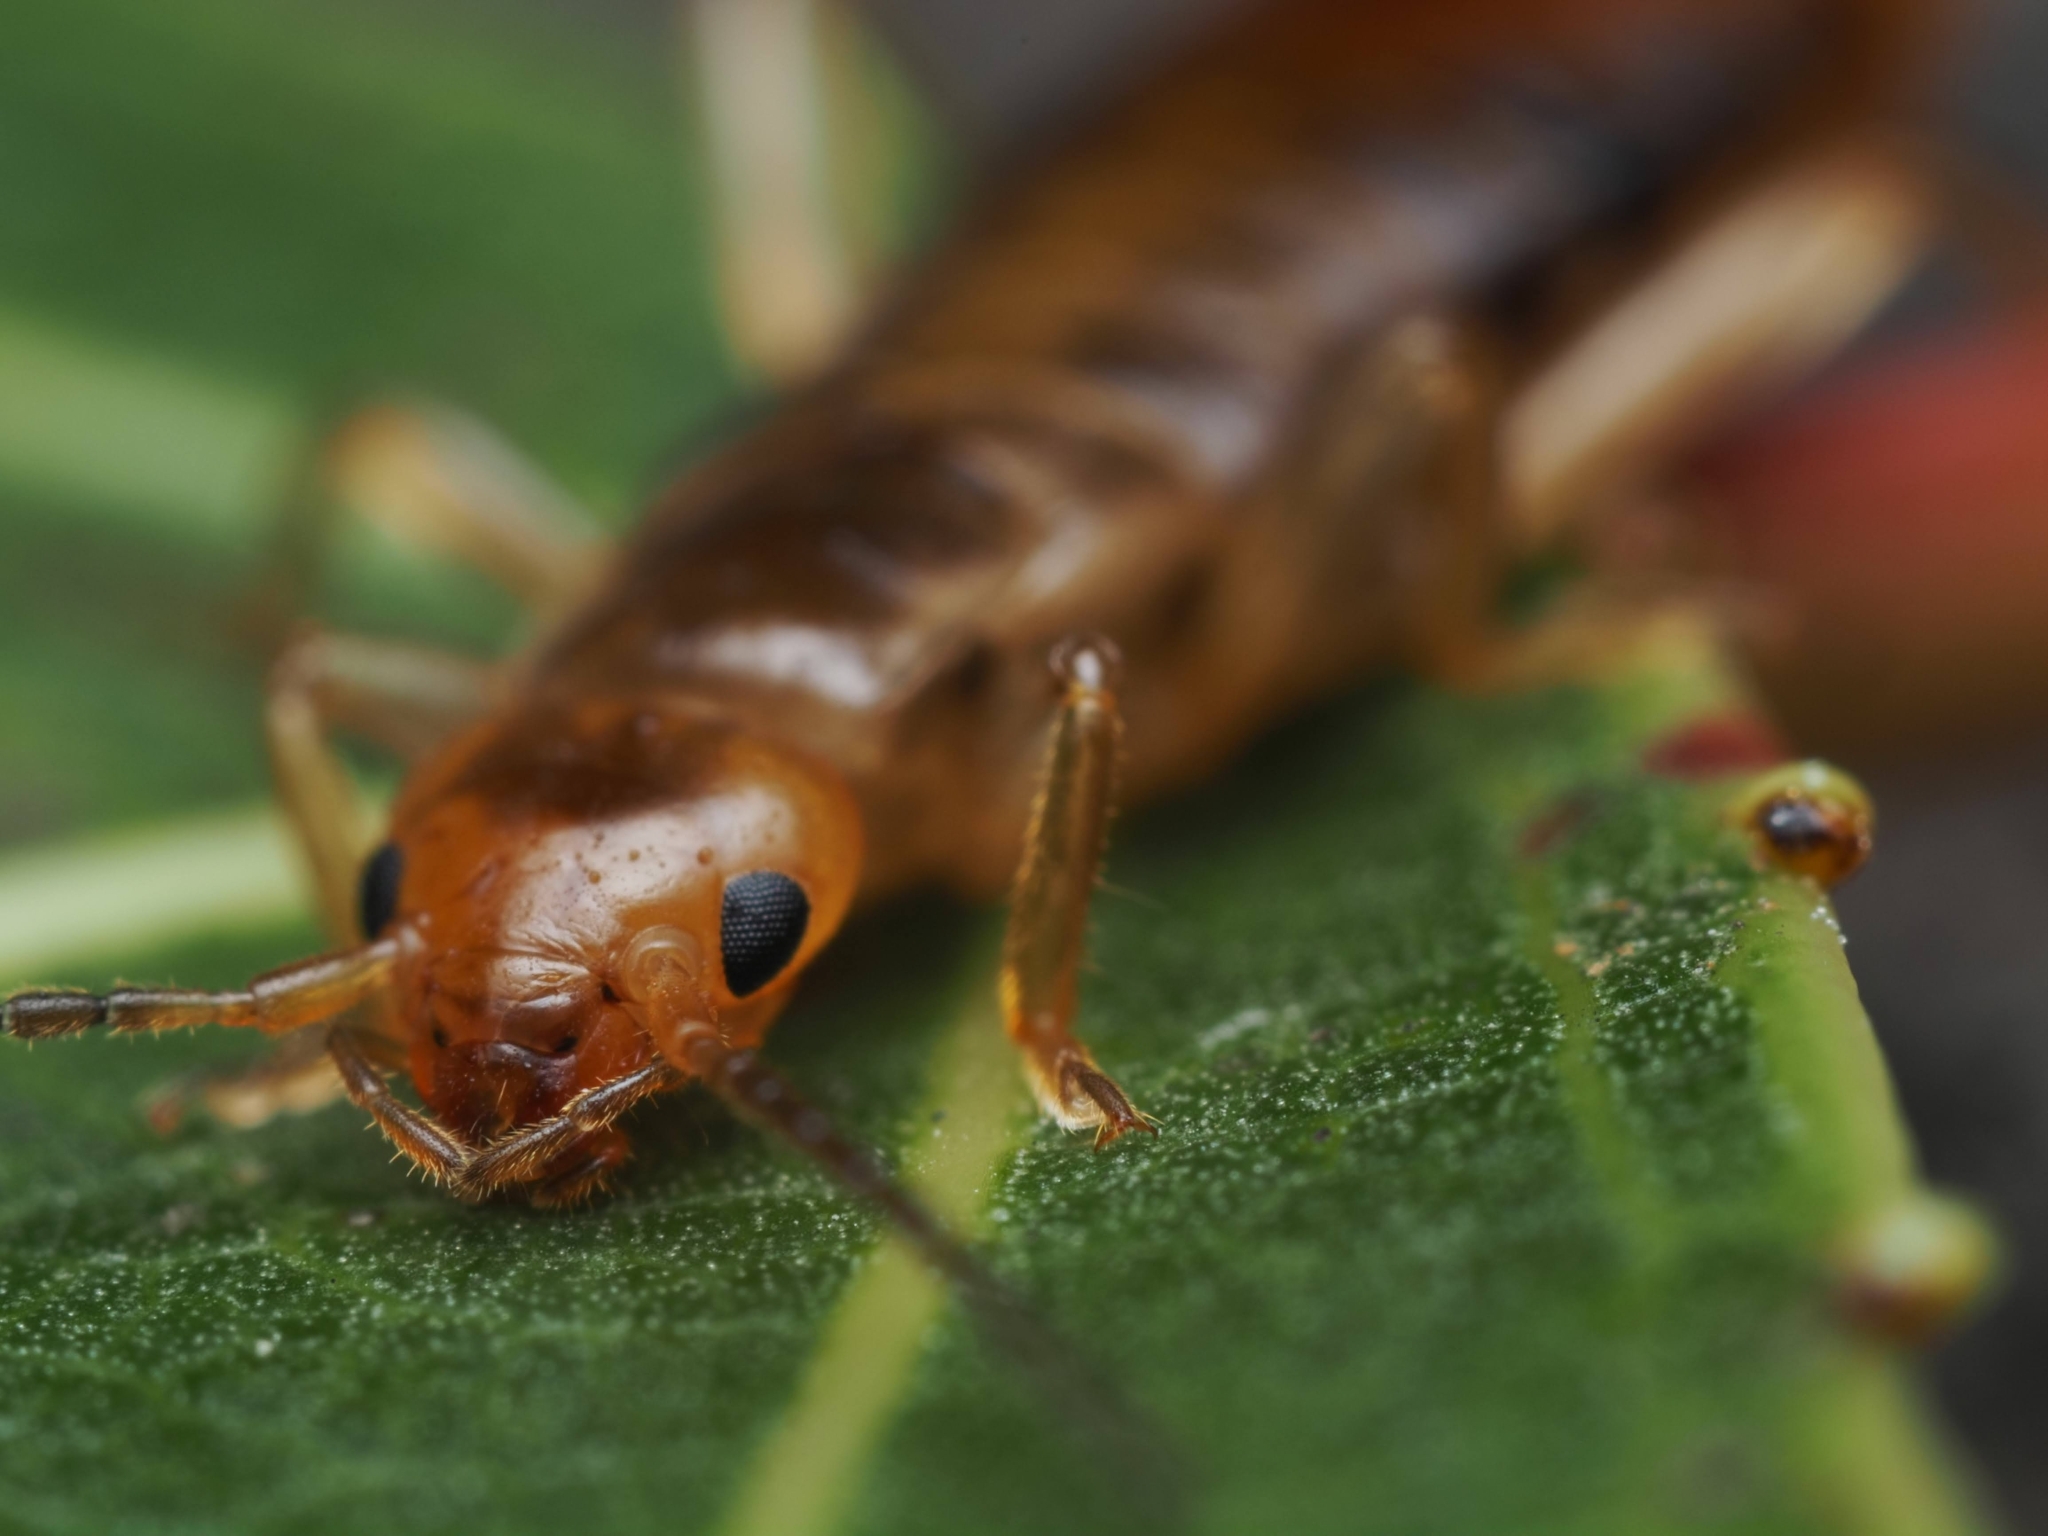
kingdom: Animalia
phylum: Arthropoda
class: Insecta
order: Dermaptera
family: Forficulidae
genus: Chelidurella
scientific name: Chelidurella acanthopygia
